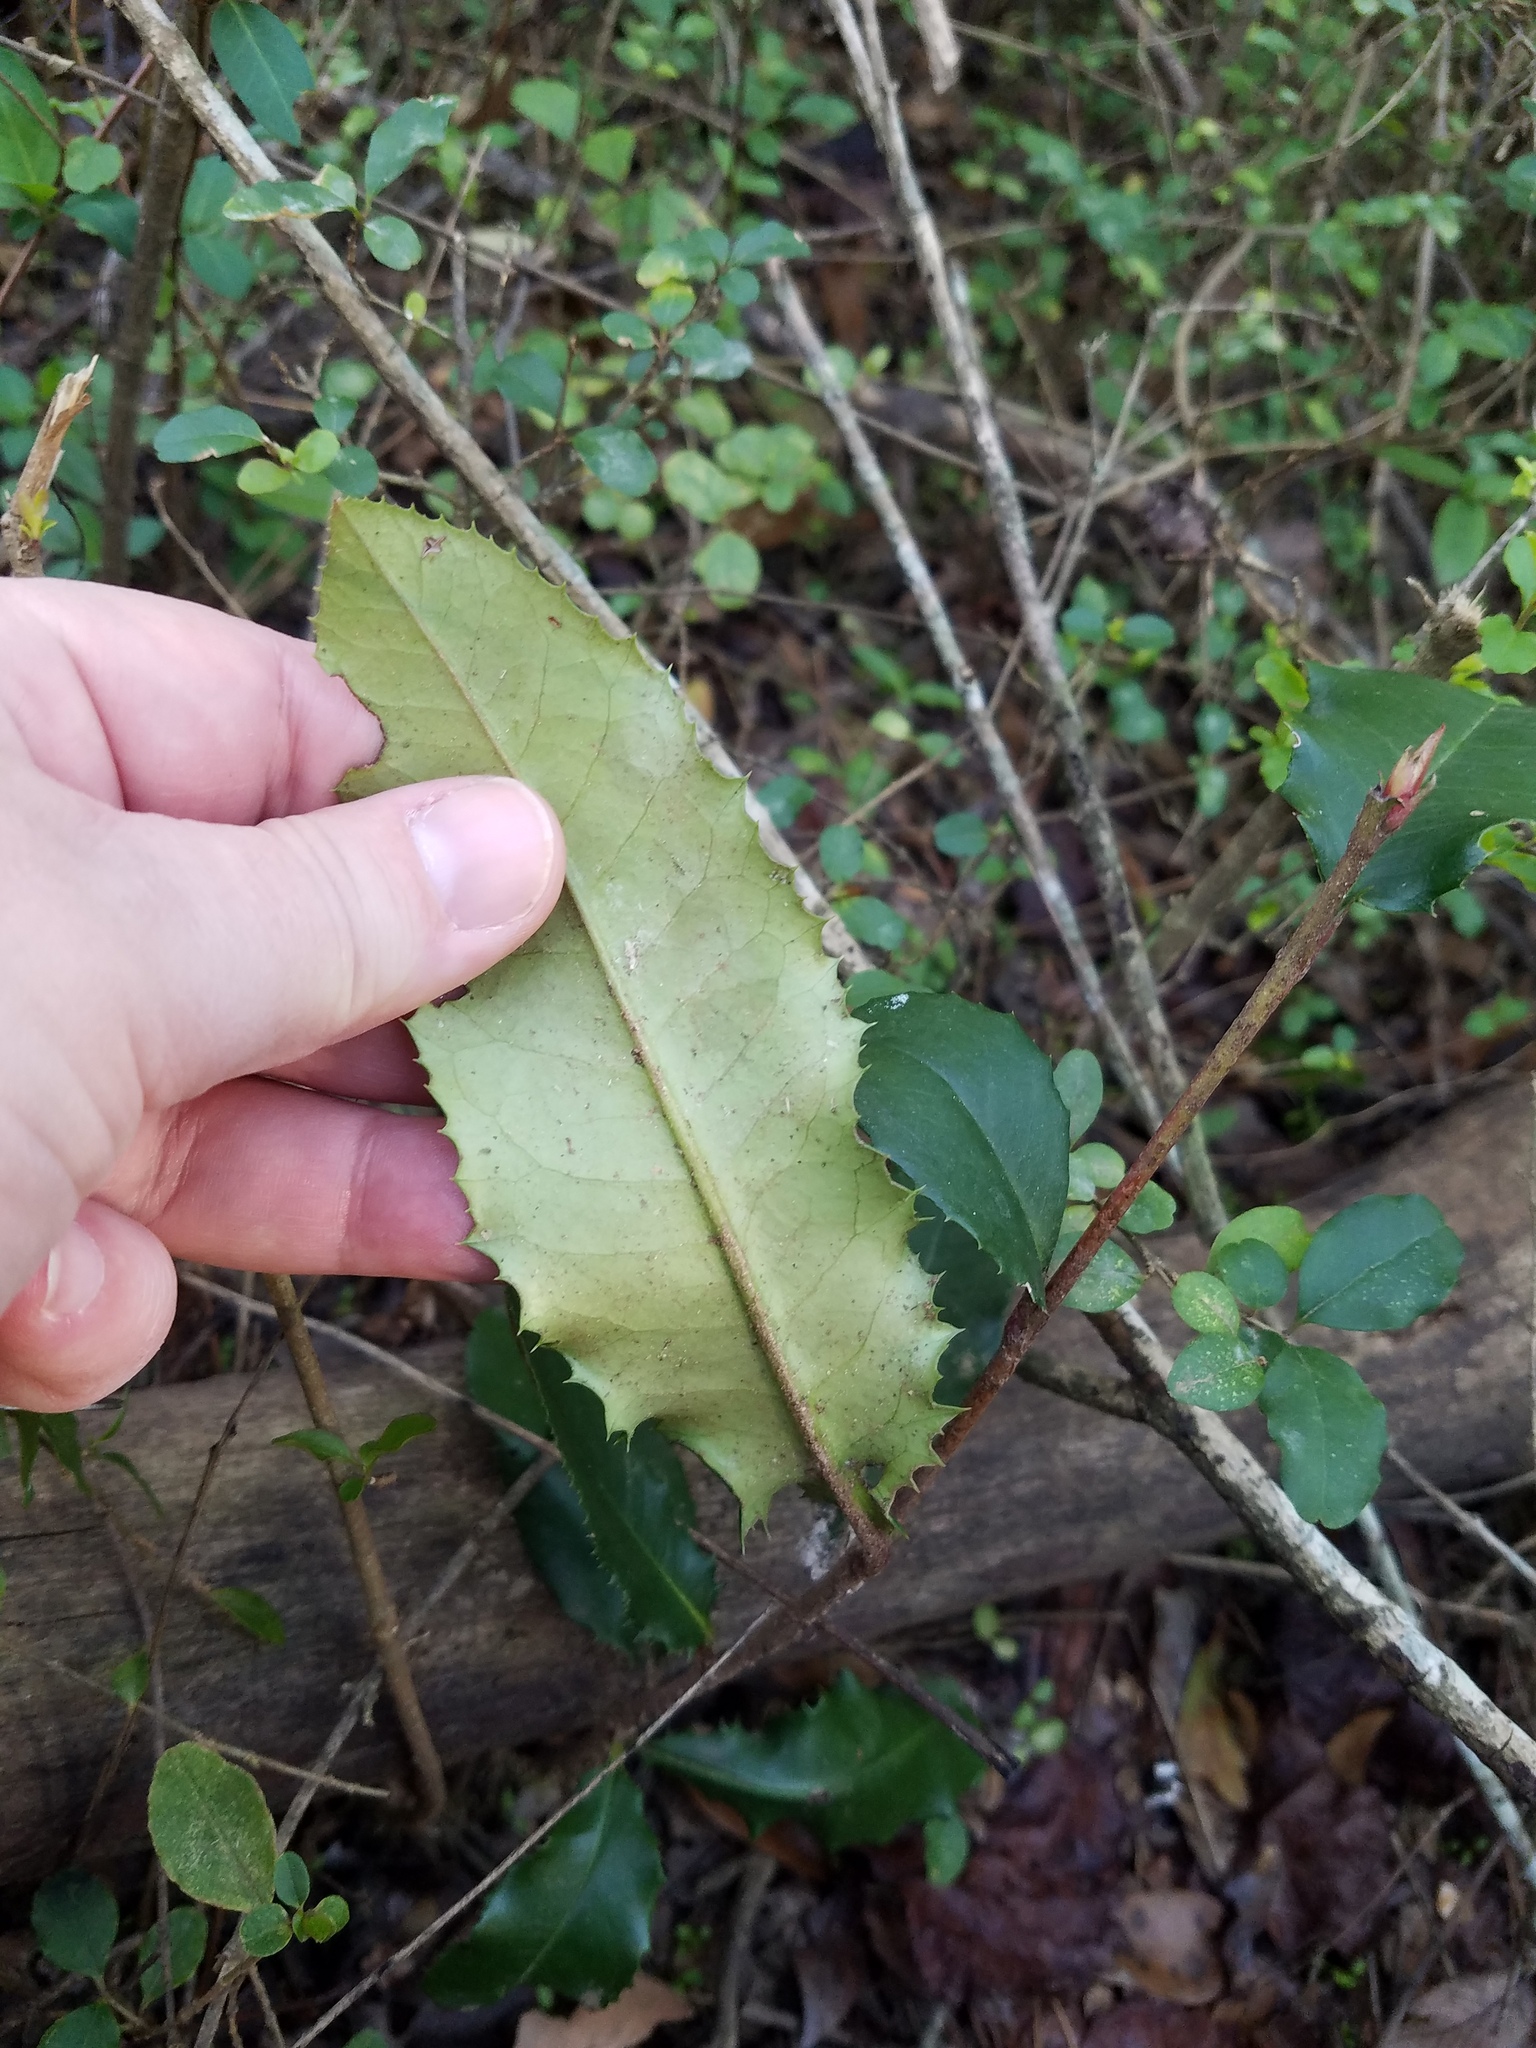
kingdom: Plantae
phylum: Tracheophyta
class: Magnoliopsida
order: Rosales
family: Rosaceae
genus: Photinia
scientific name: Photinia serratifolia
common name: Taiwanese photinia
